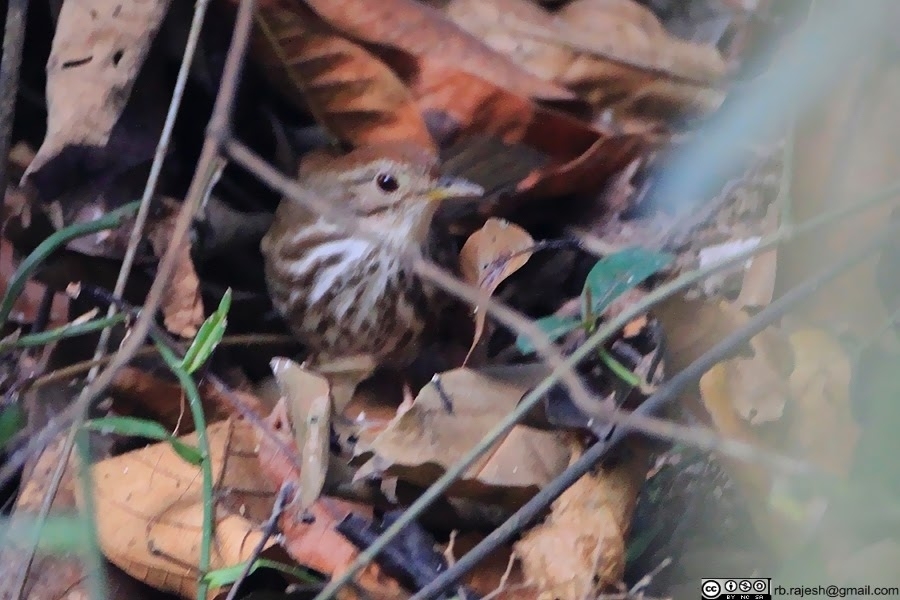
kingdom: Animalia
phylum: Chordata
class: Aves
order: Passeriformes
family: Pellorneidae
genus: Pellorneum
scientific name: Pellorneum ruficeps
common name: Puff-throated babbler
